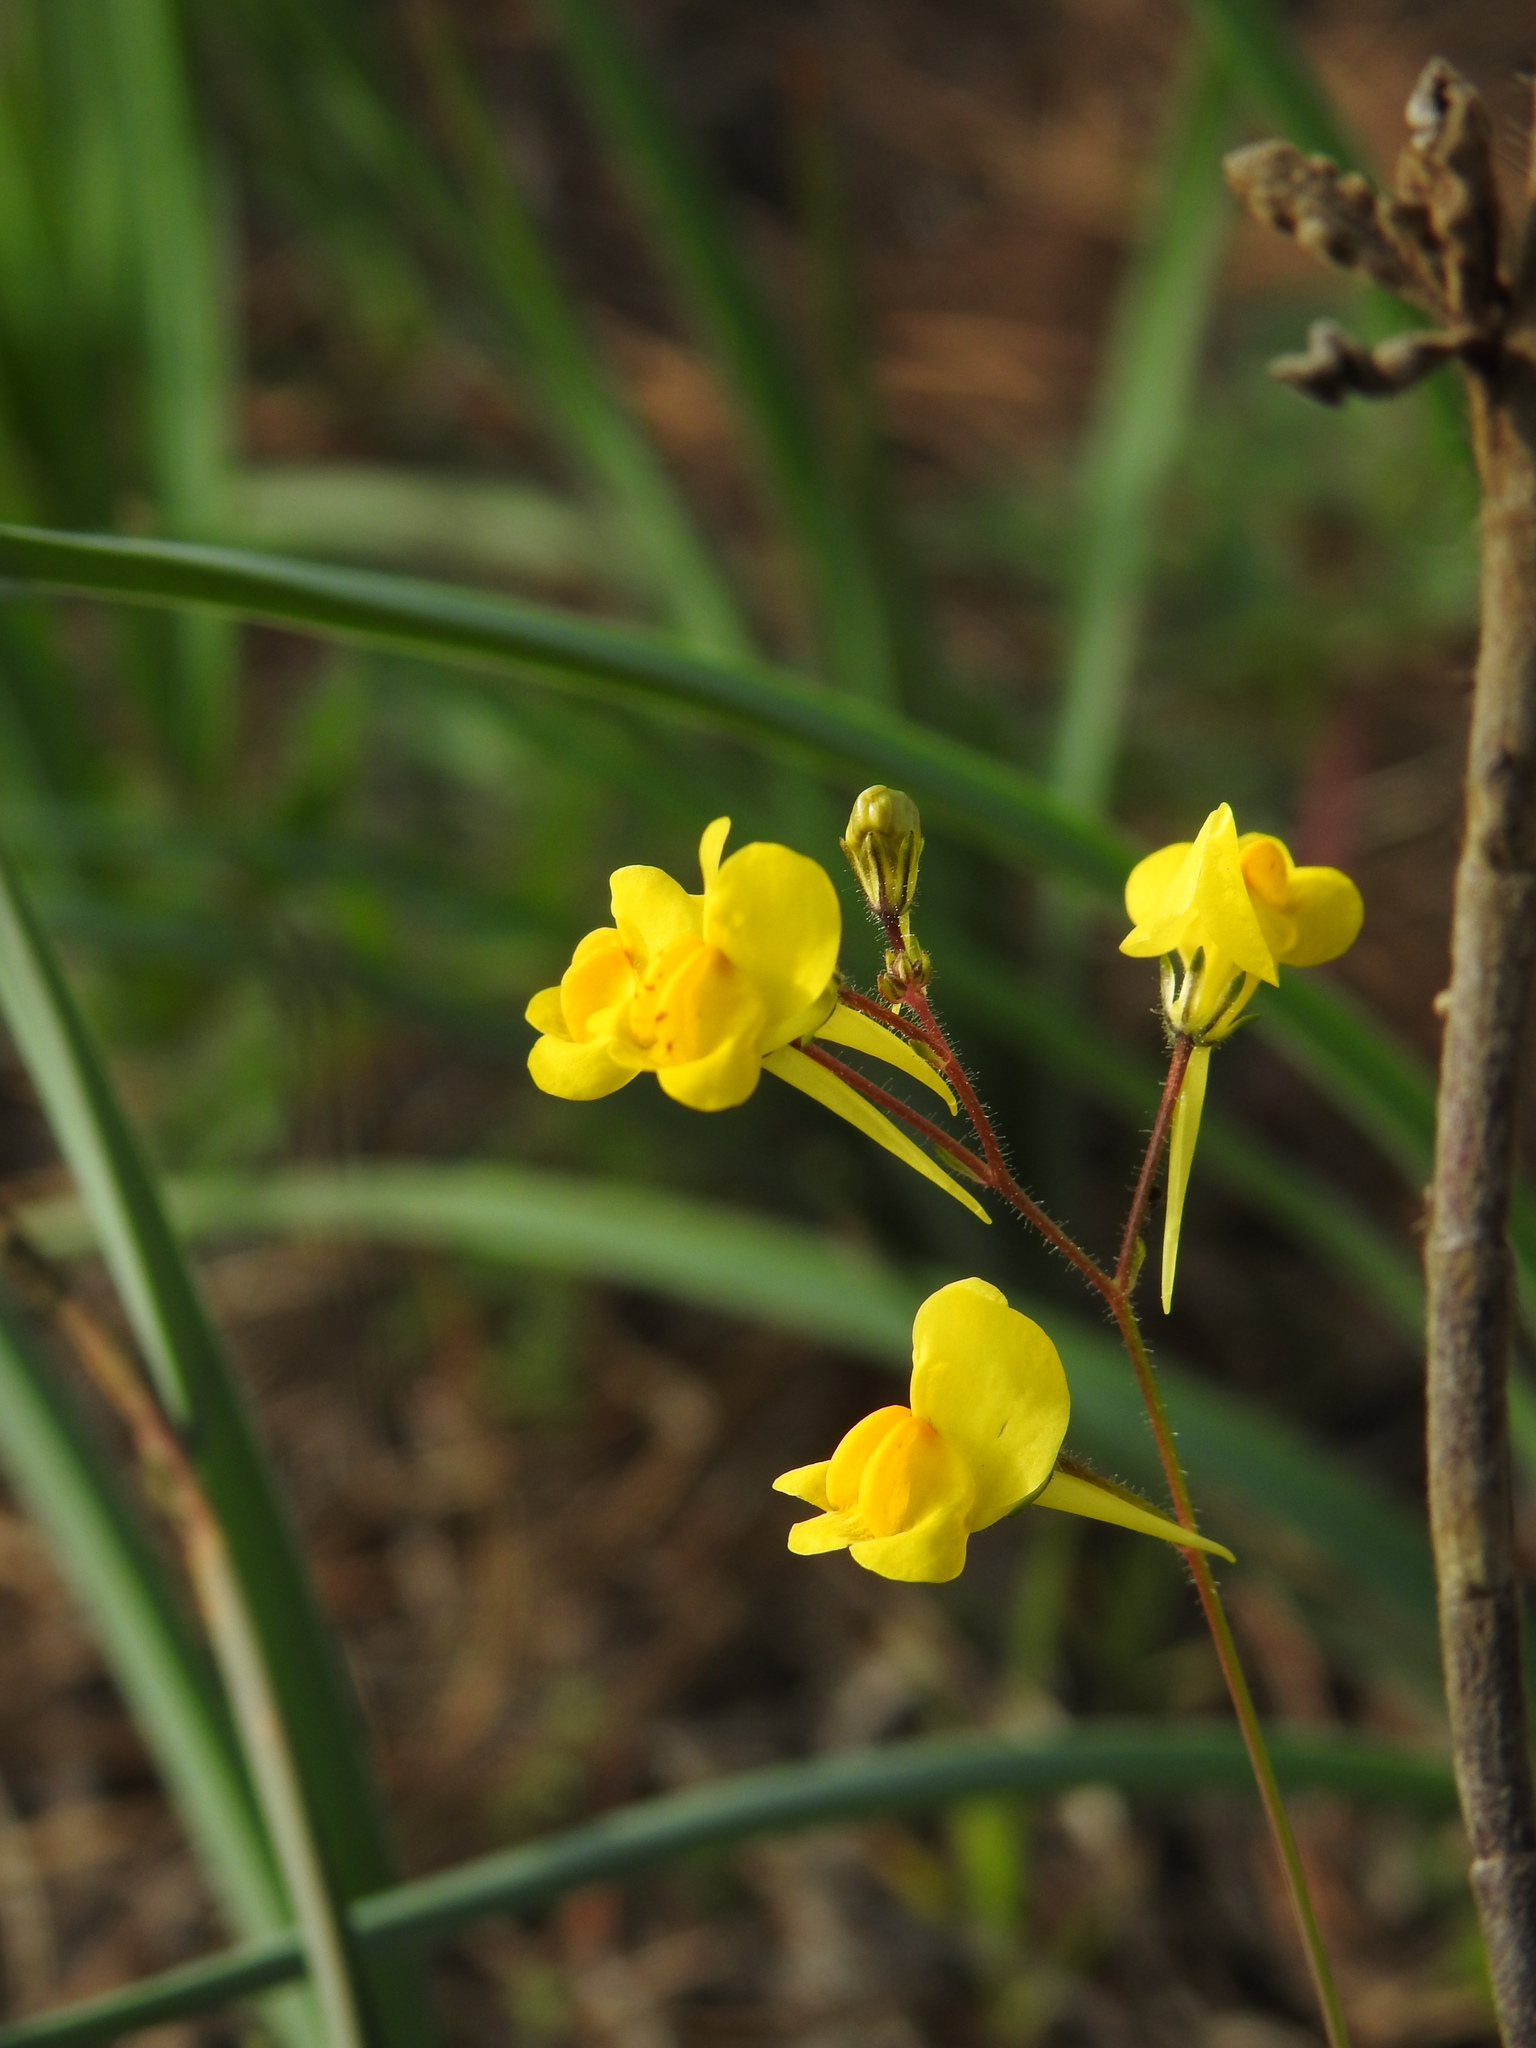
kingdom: Plantae
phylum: Tracheophyta
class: Magnoliopsida
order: Lamiales
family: Plantaginaceae
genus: Linaria
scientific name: Linaria spartea
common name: Ballast toadflax
